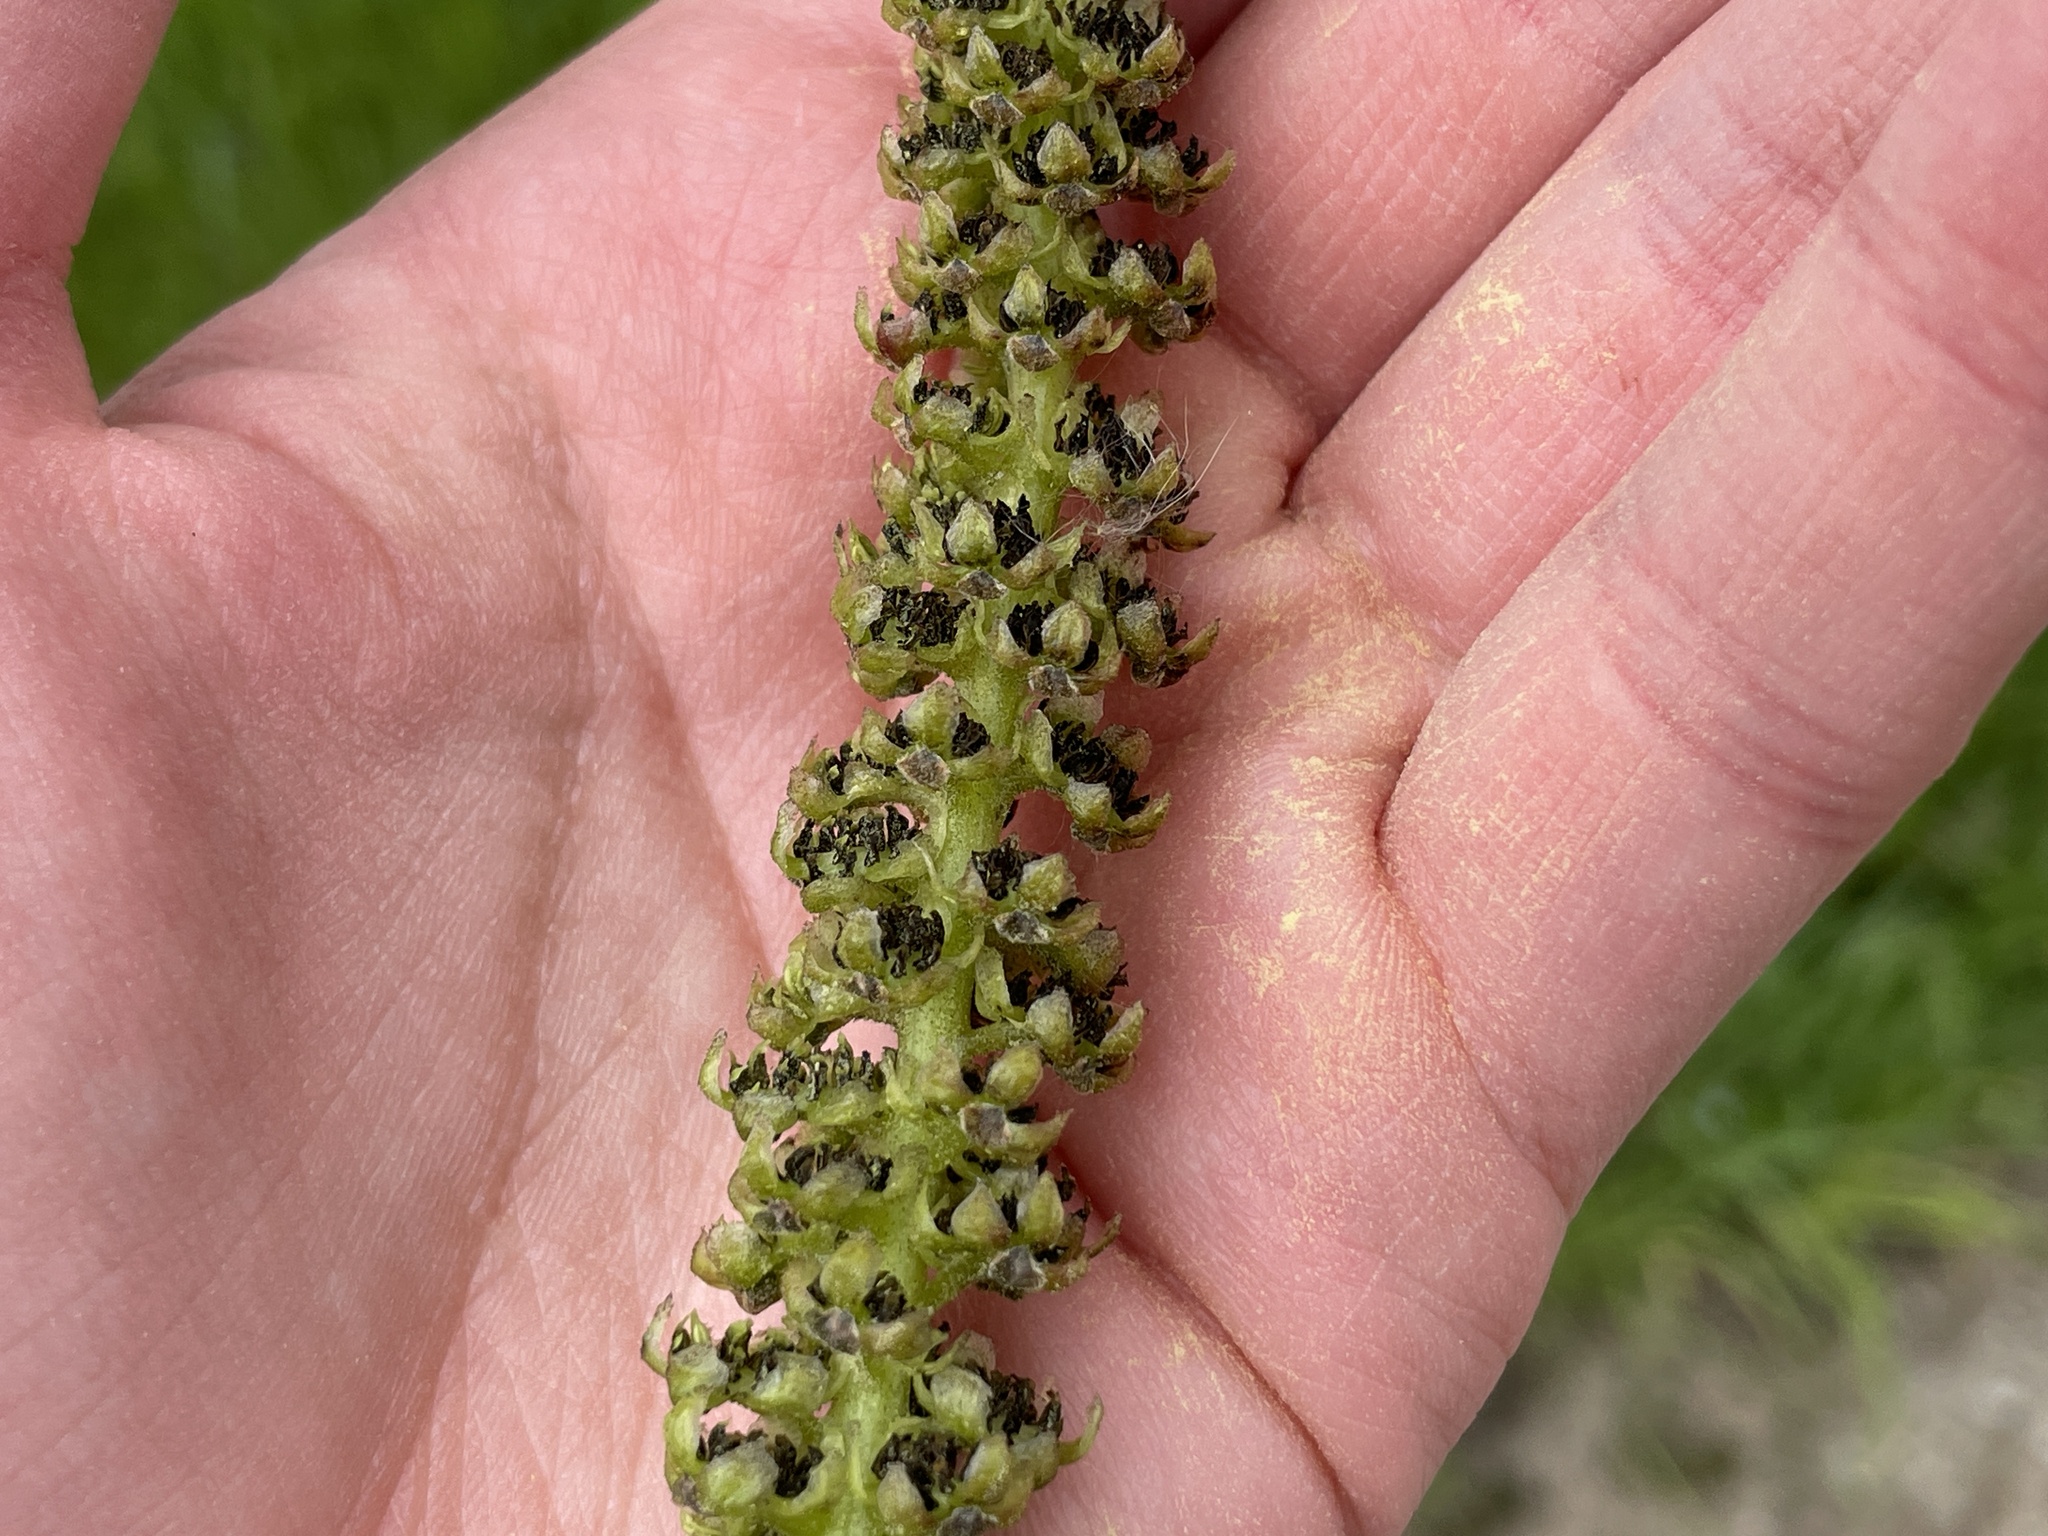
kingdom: Plantae
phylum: Tracheophyta
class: Magnoliopsida
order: Fagales
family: Juglandaceae
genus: Juglans
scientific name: Juglans regia
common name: Walnut
